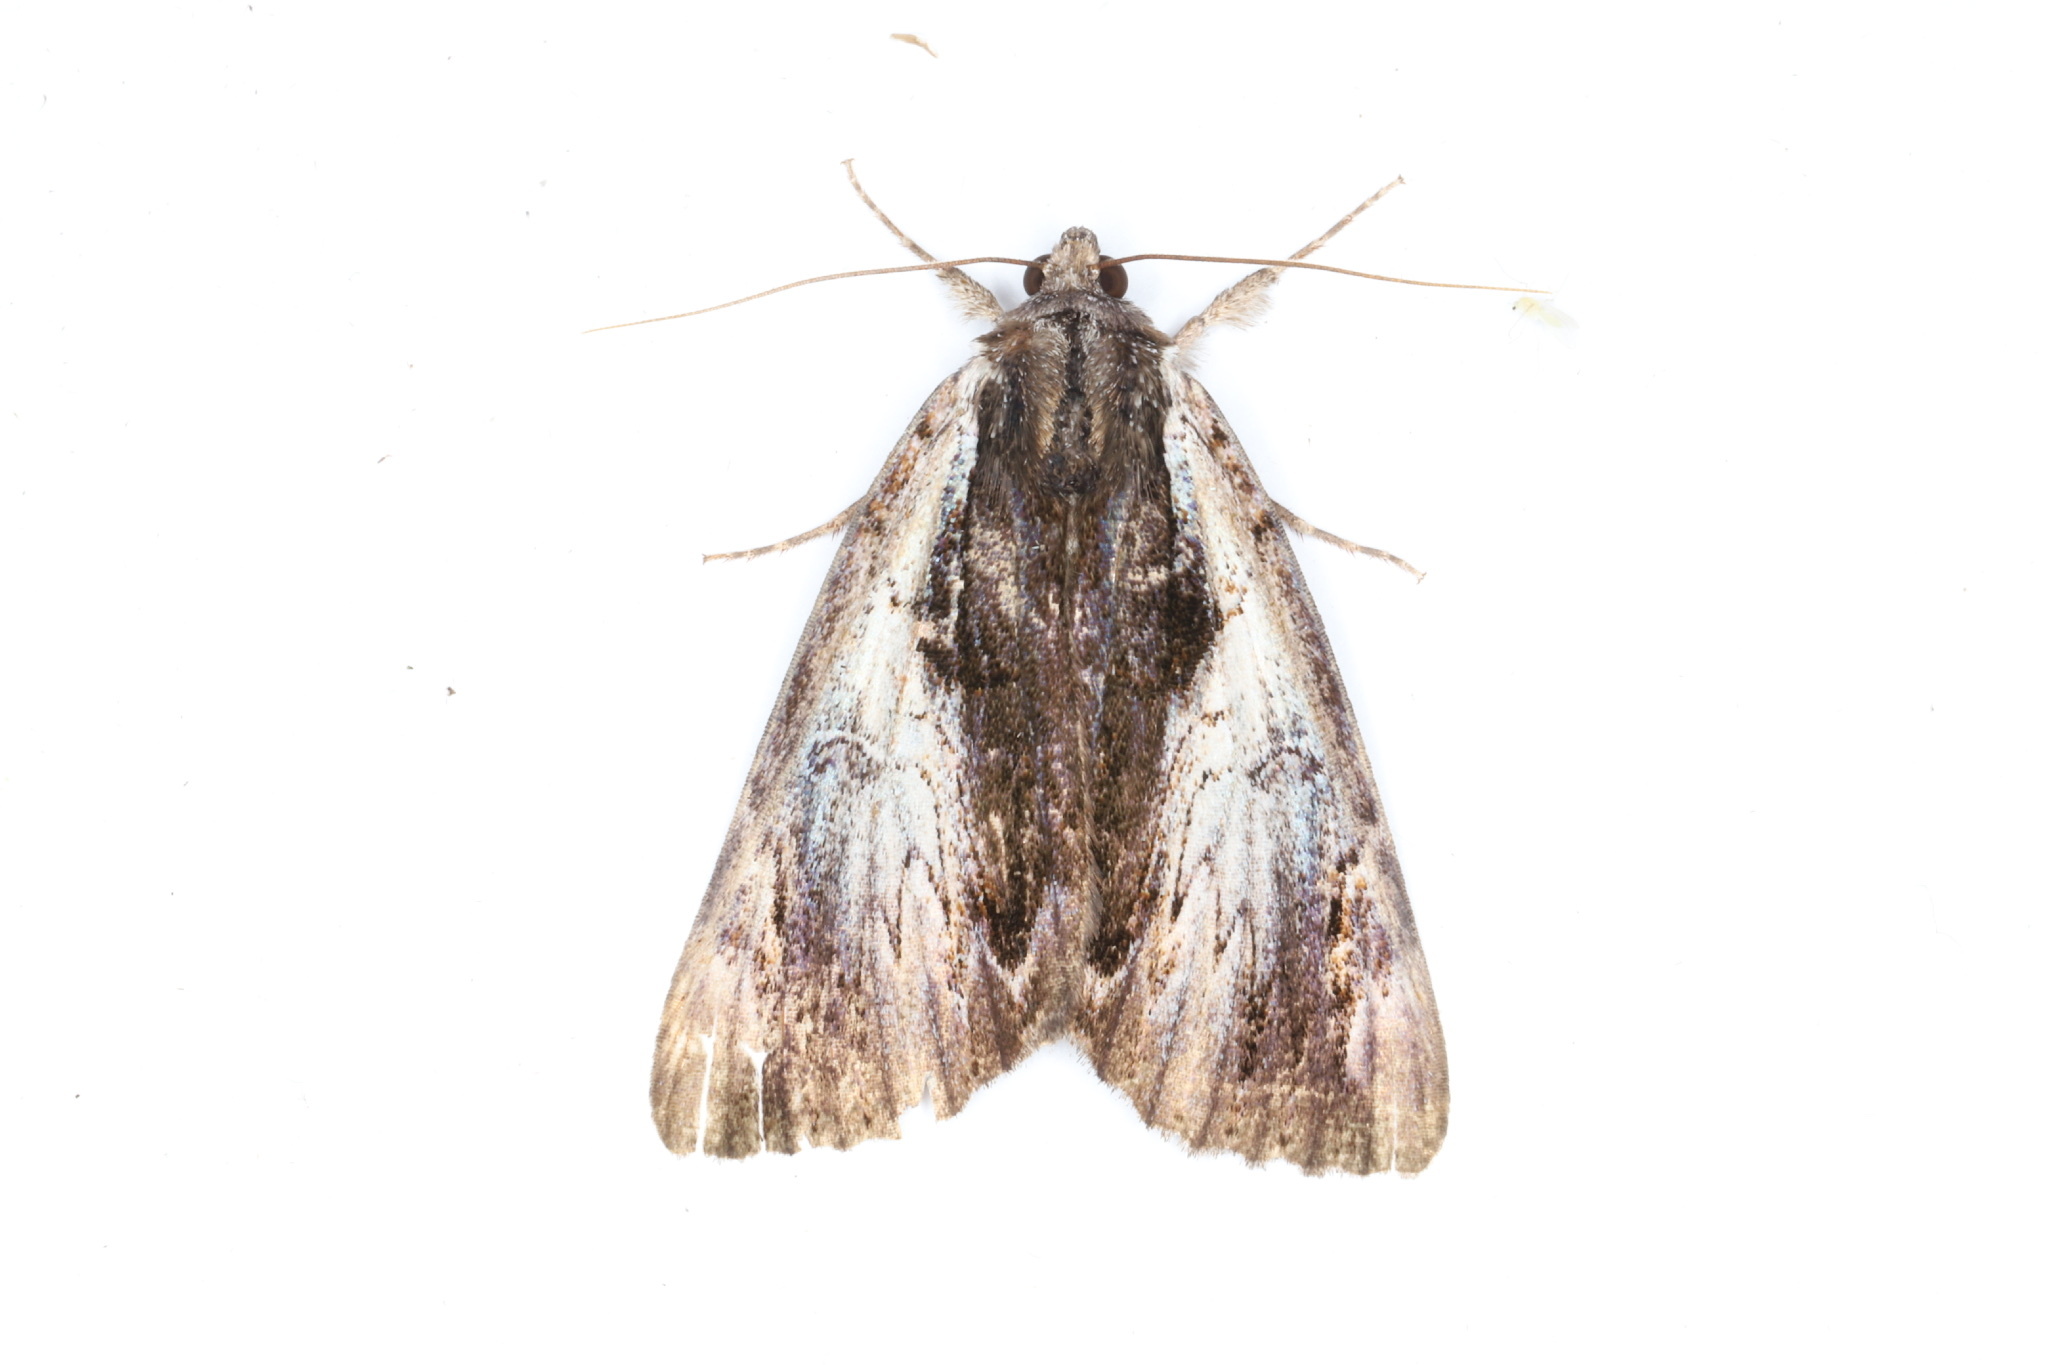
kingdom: Animalia
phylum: Arthropoda
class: Insecta
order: Lepidoptera
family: Erebidae
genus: Catocala
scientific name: Catocala ultronia
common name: Ultronia underwing
